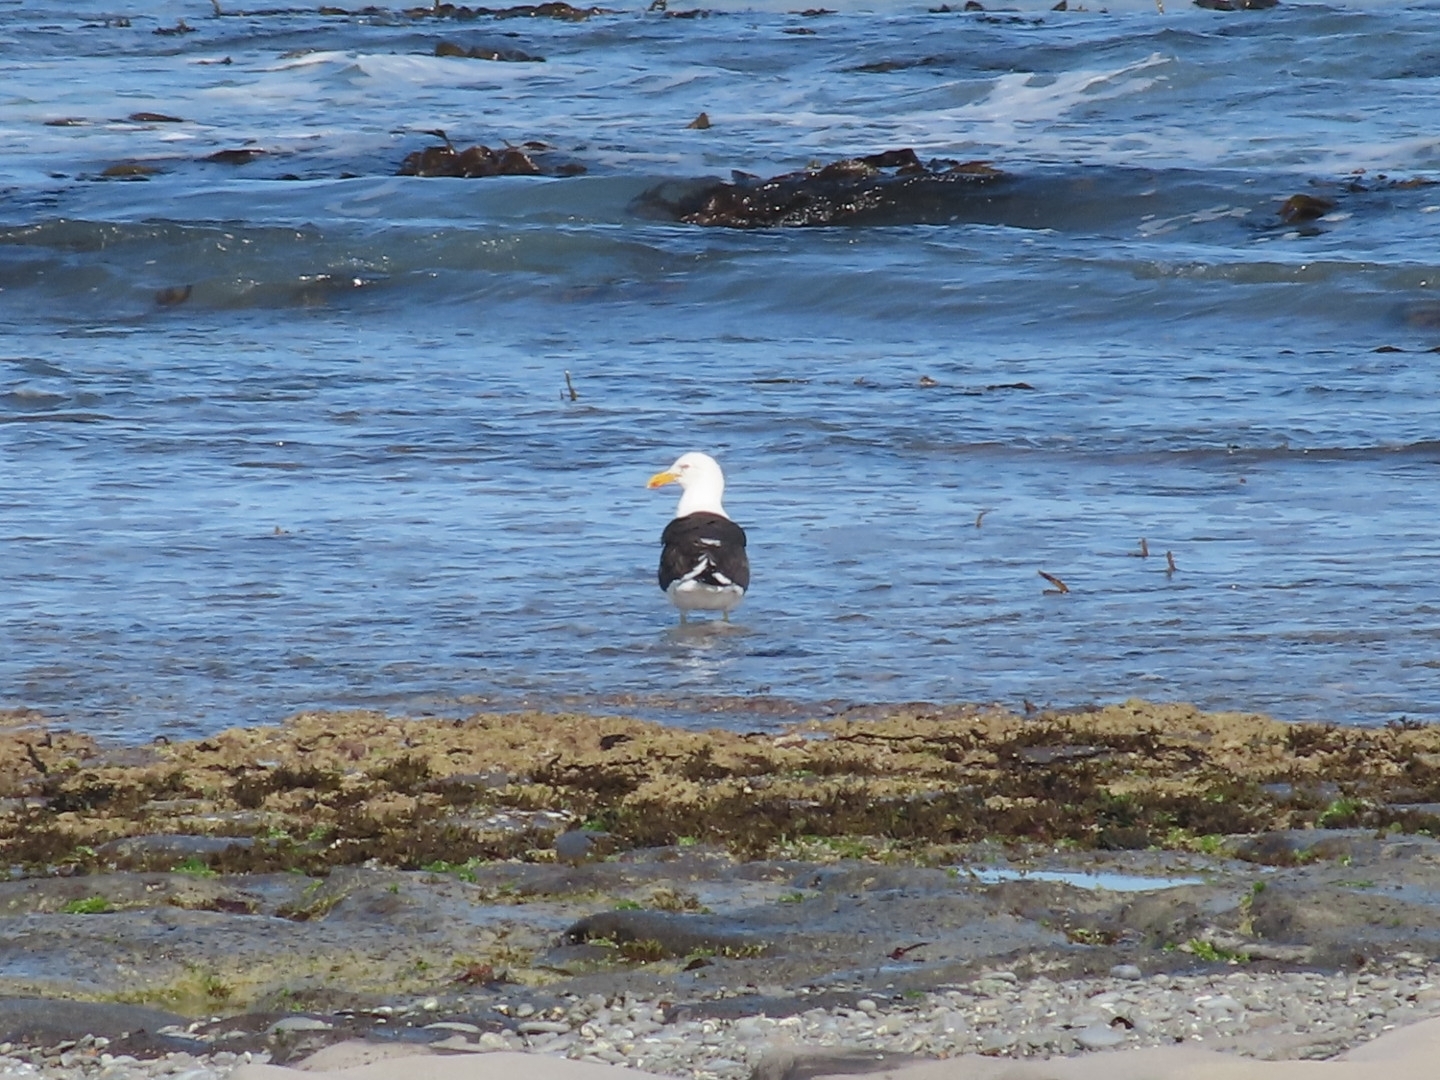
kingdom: Animalia
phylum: Chordata
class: Aves
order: Charadriiformes
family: Laridae
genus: Larus
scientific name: Larus dominicanus
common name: Kelp gull
